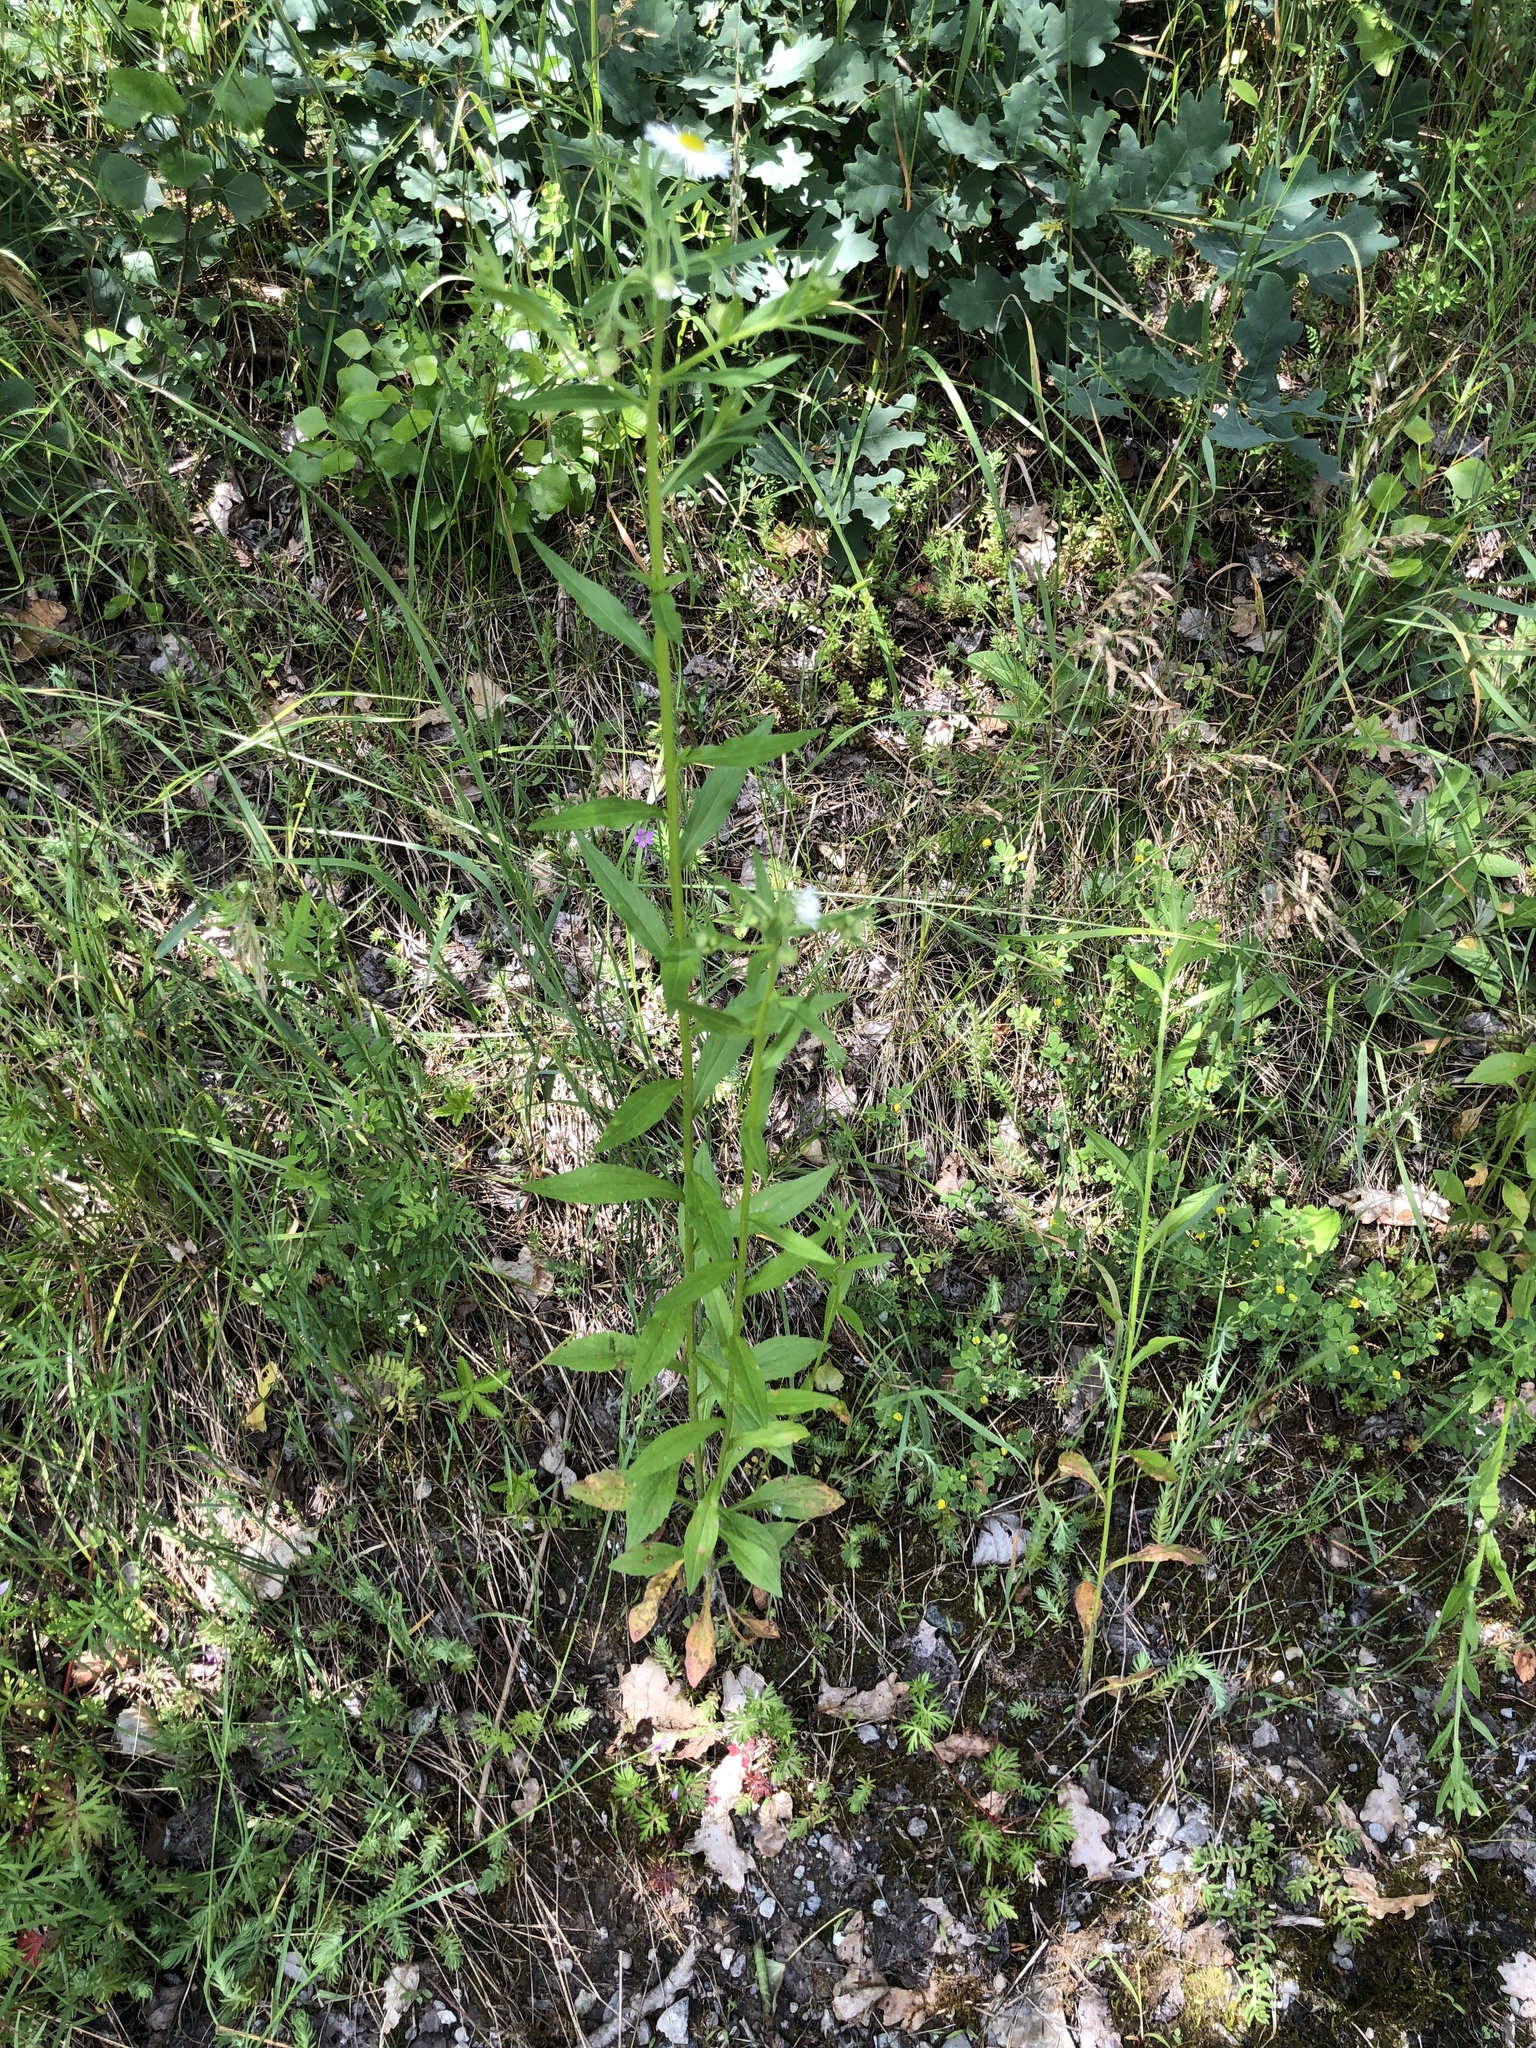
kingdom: Plantae
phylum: Tracheophyta
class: Magnoliopsida
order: Asterales
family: Asteraceae
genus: Erigeron
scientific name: Erigeron annuus
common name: Tall fleabane
